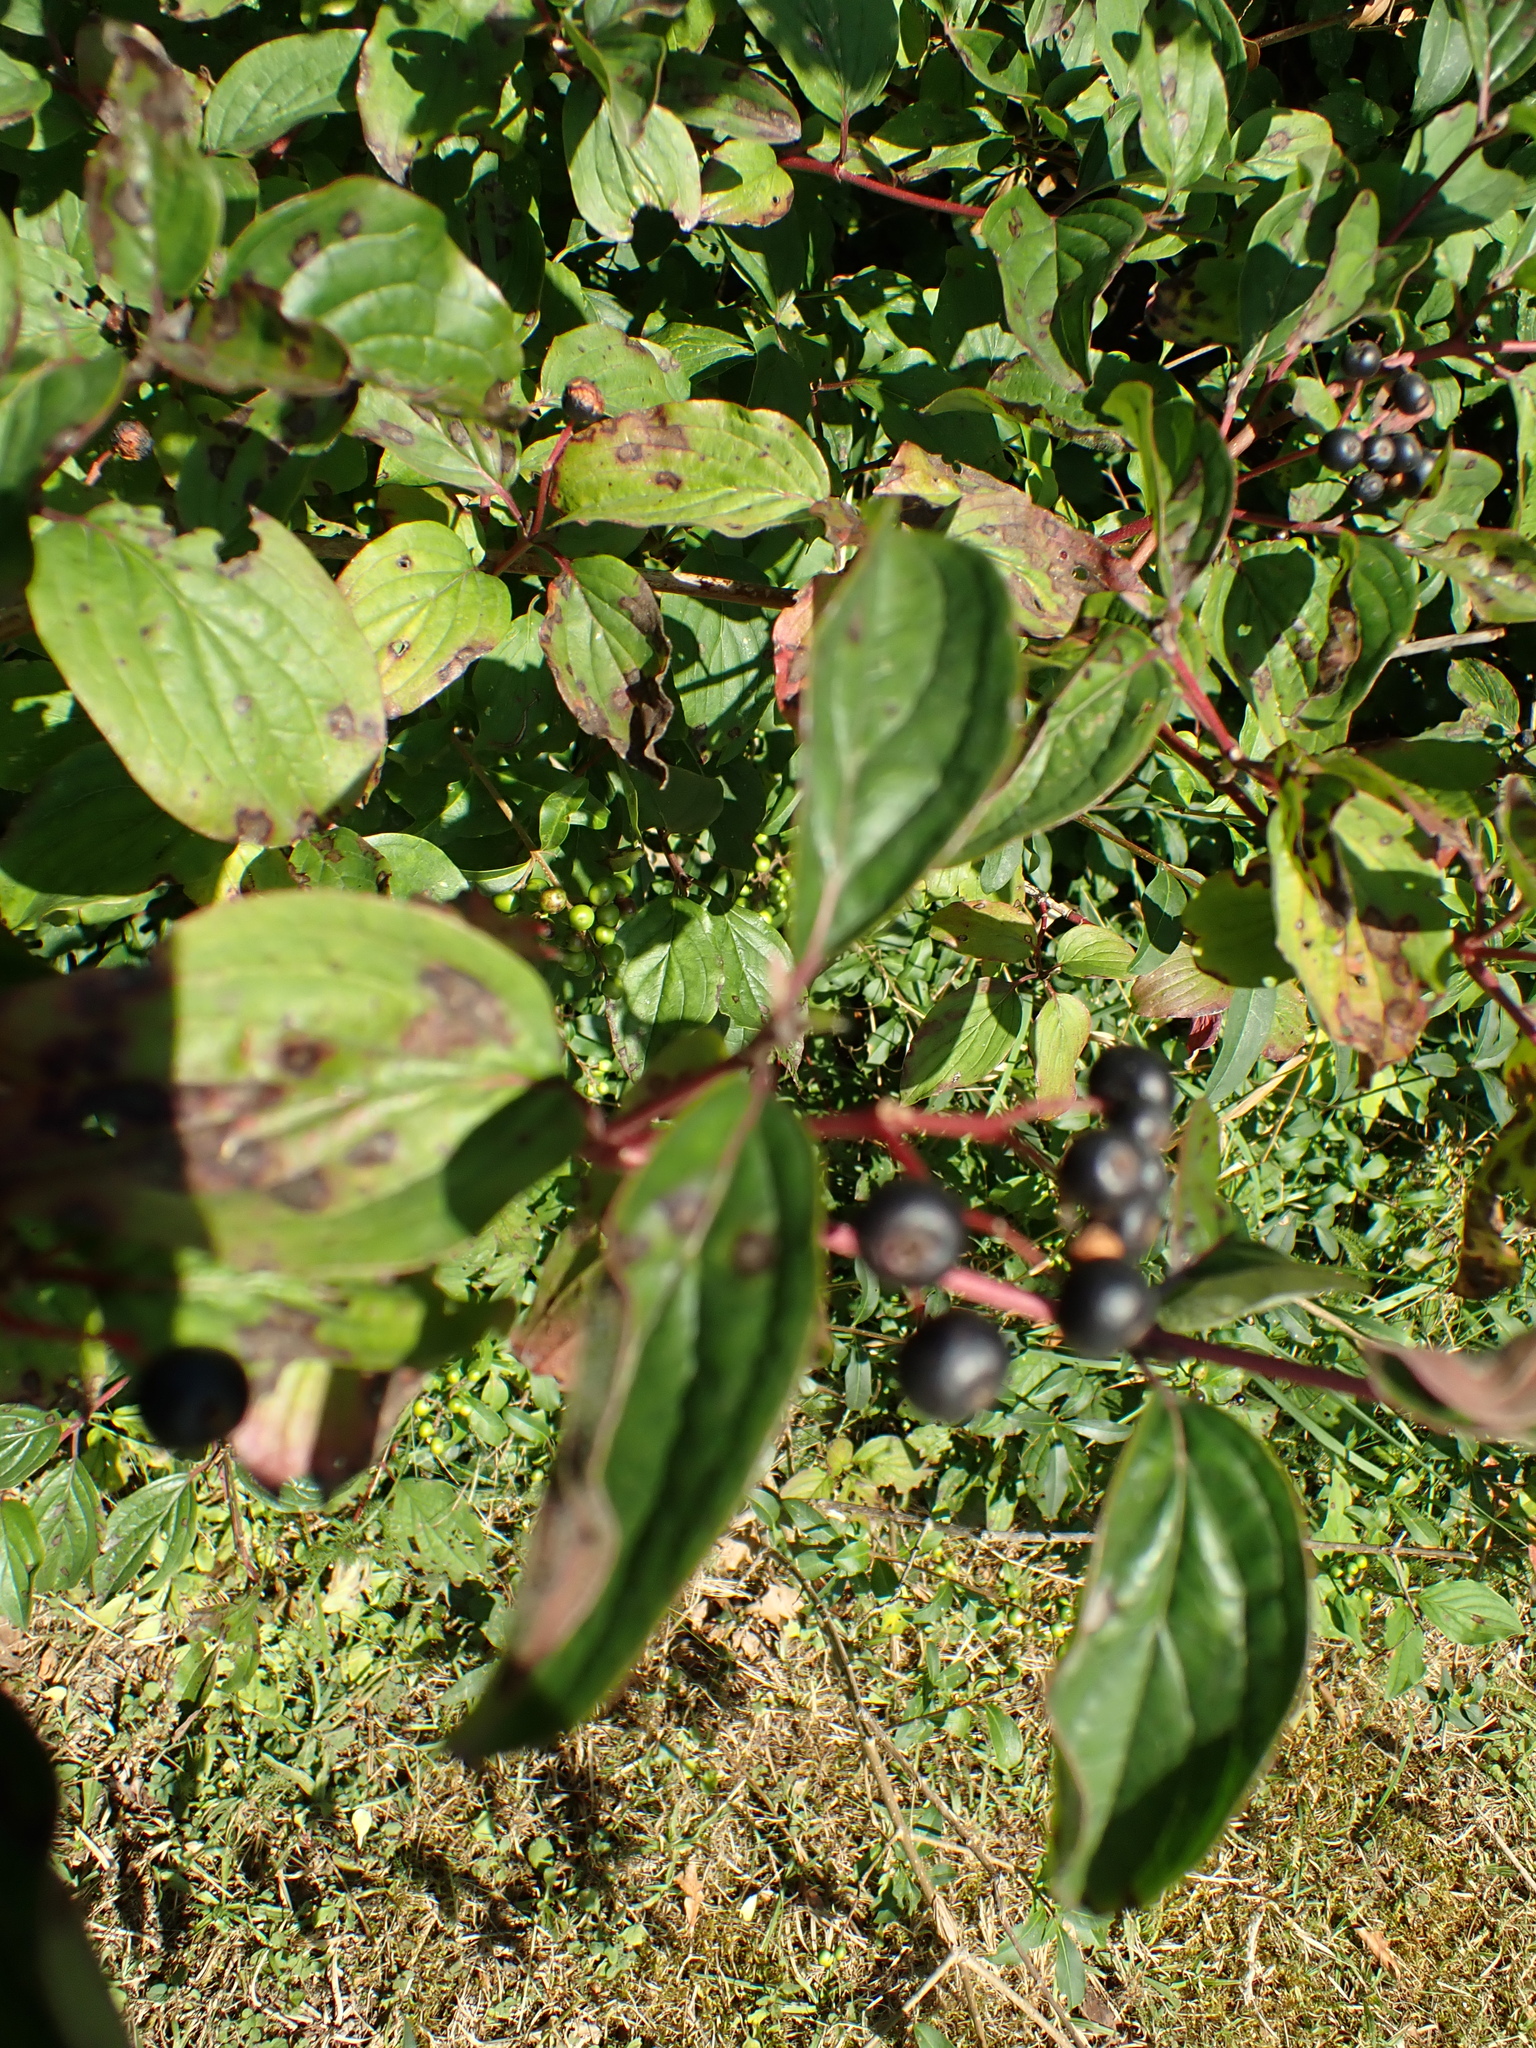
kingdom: Plantae
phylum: Tracheophyta
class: Magnoliopsida
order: Cornales
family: Cornaceae
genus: Cornus
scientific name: Cornus sanguinea
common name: Dogwood
